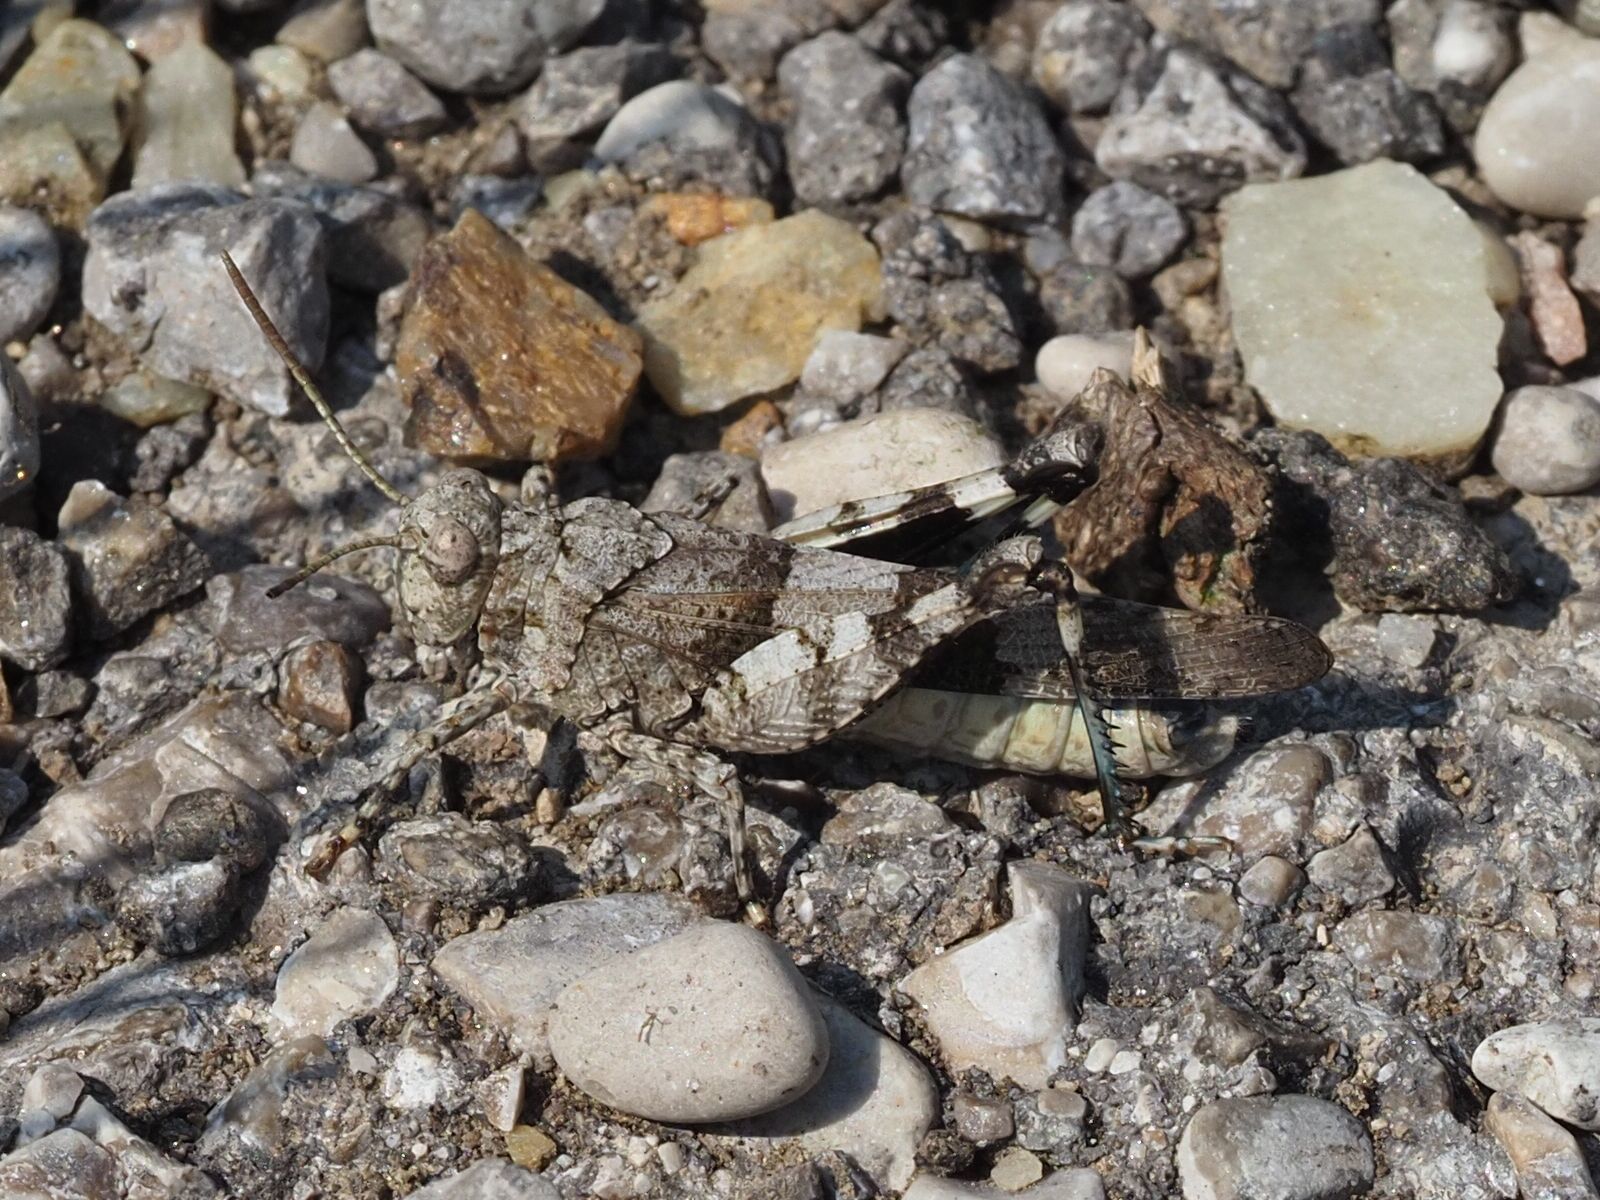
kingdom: Animalia
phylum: Arthropoda
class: Insecta
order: Orthoptera
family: Acrididae
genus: Oedipoda
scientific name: Oedipoda caerulescens
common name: Blue-winged grasshopper
